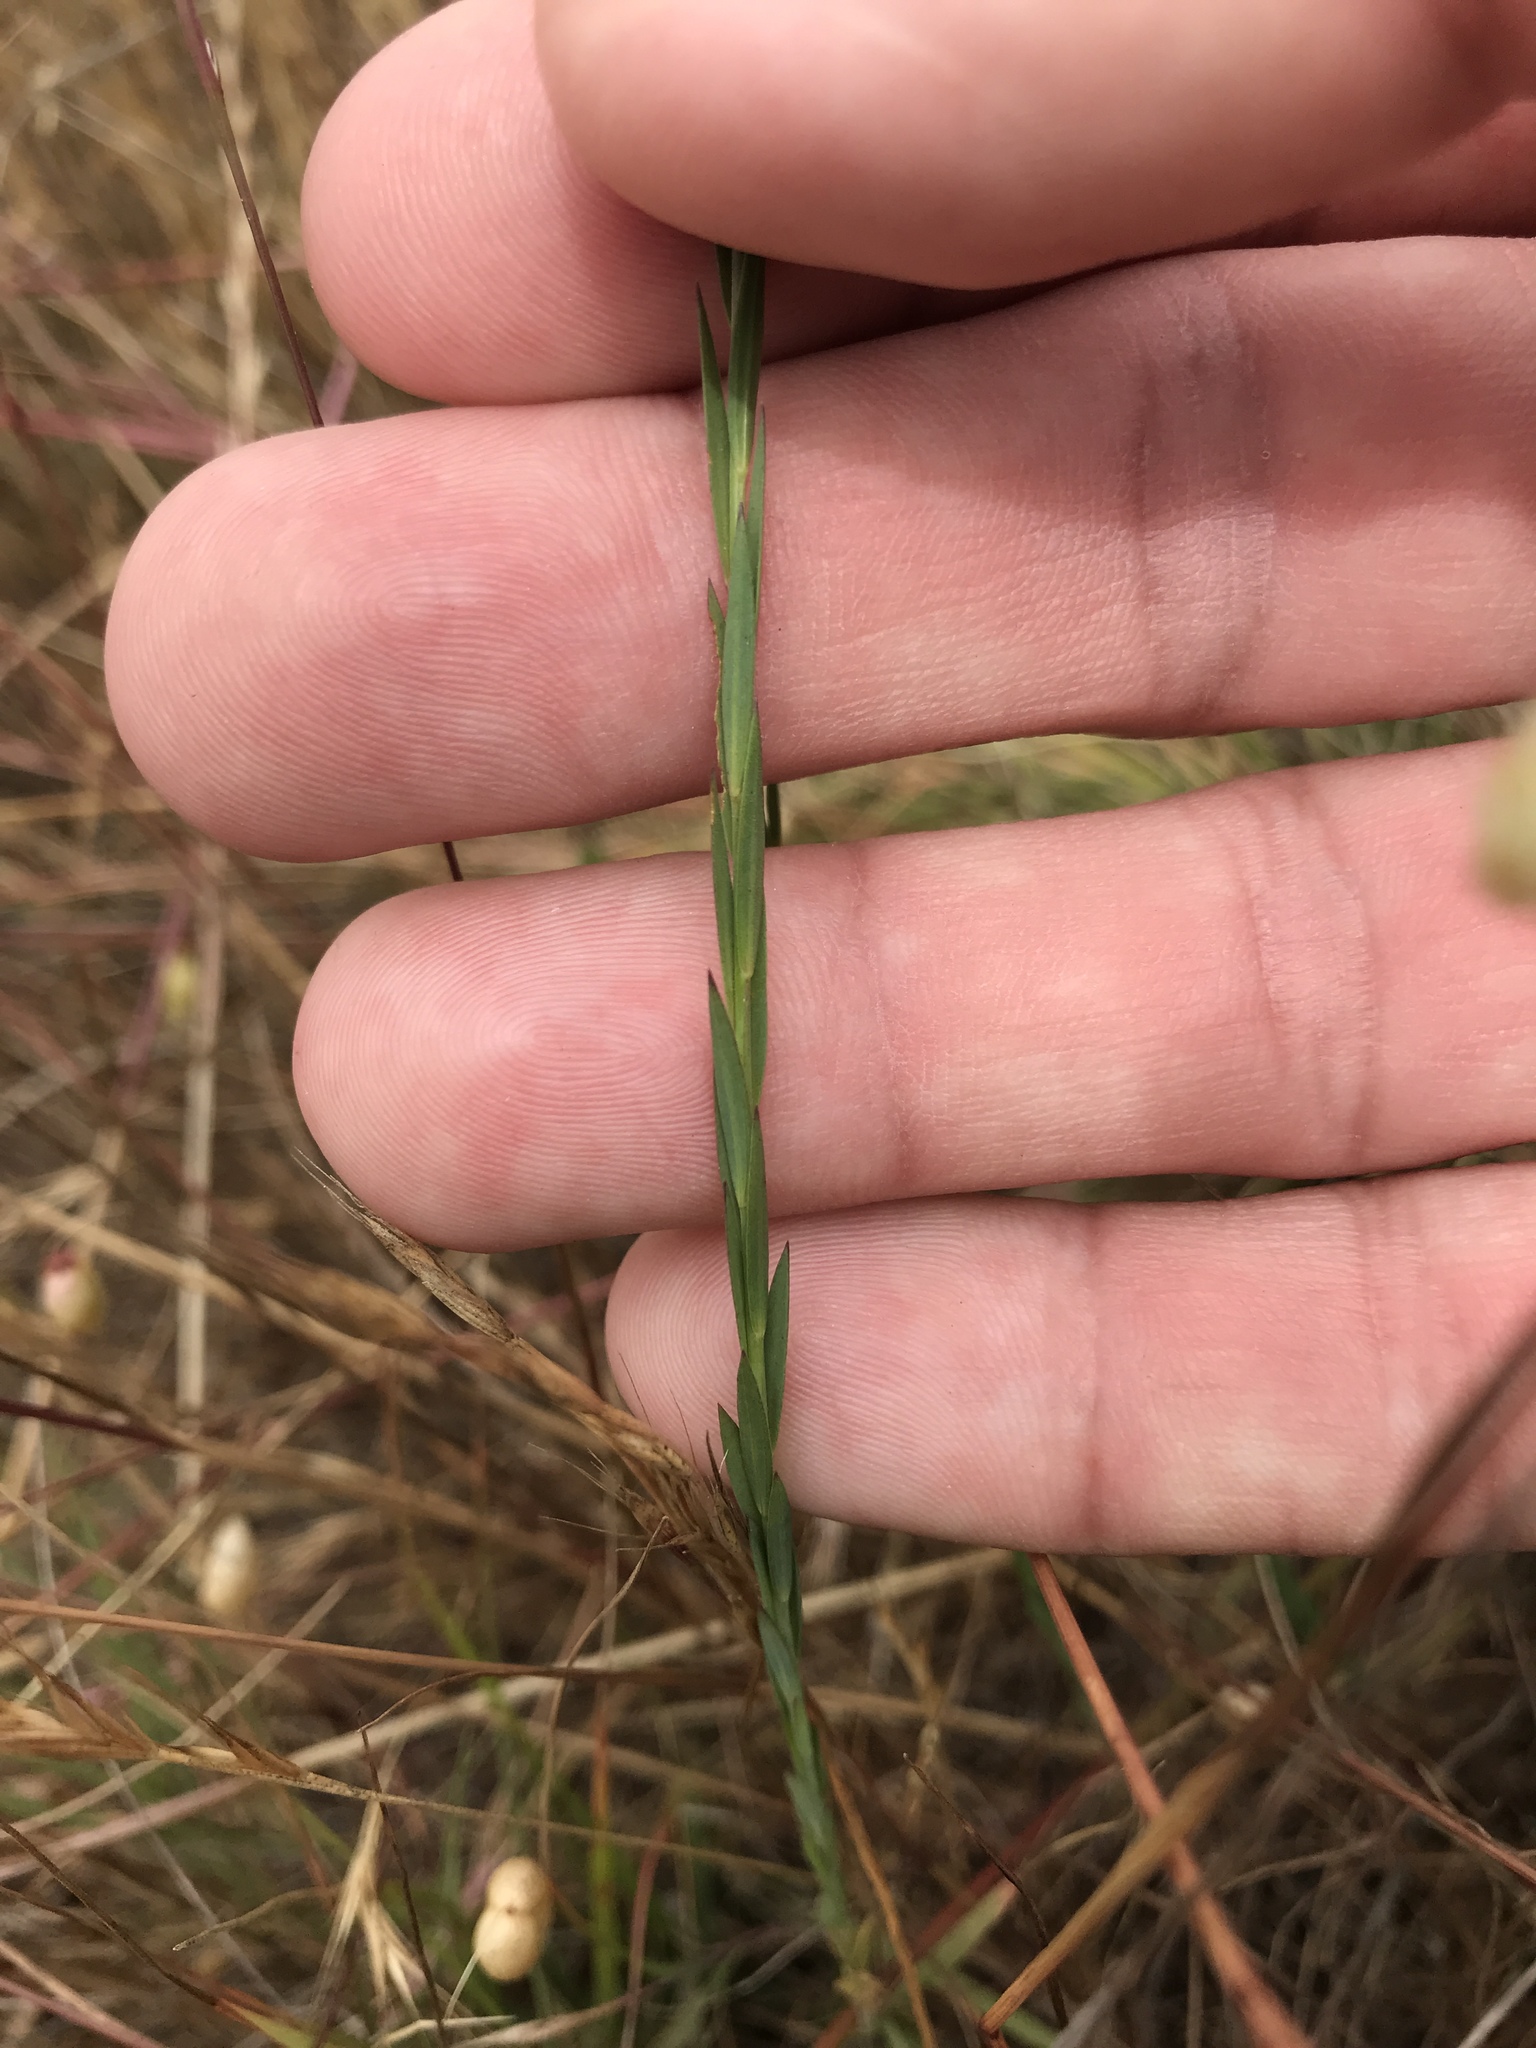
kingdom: Plantae
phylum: Tracheophyta
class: Magnoliopsida
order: Malpighiales
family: Linaceae
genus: Linum
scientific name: Linum bienne
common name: Pale flax
